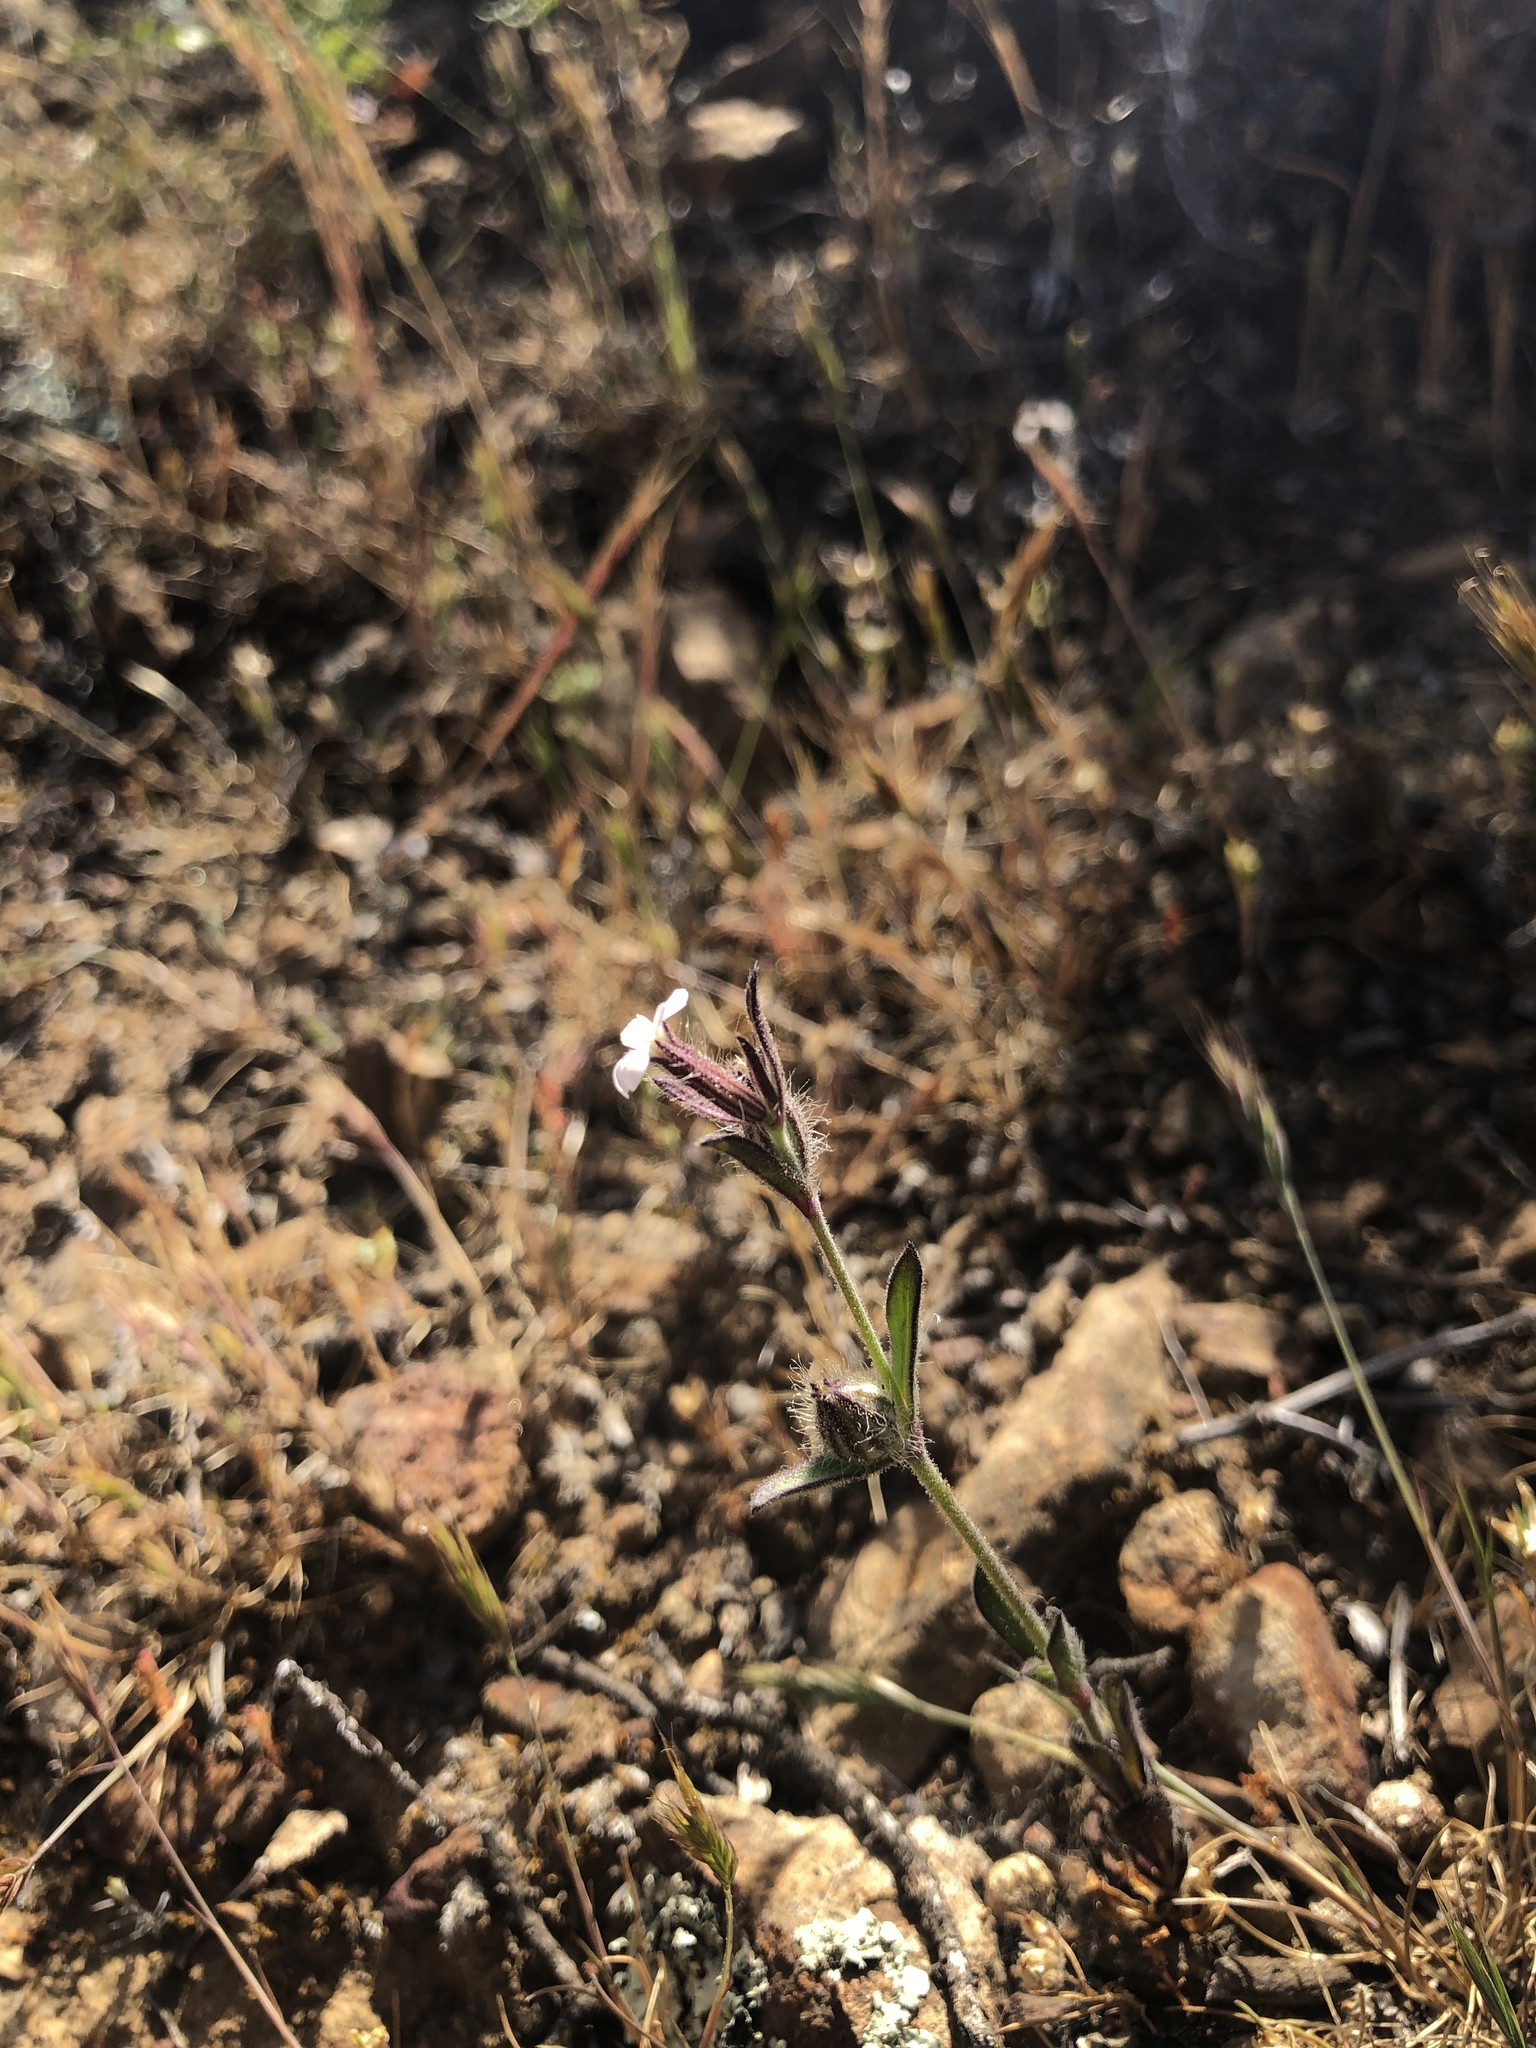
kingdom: Plantae
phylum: Tracheophyta
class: Magnoliopsida
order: Caryophyllales
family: Caryophyllaceae
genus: Silene
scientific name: Silene gallica
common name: Small-flowered catchfly
